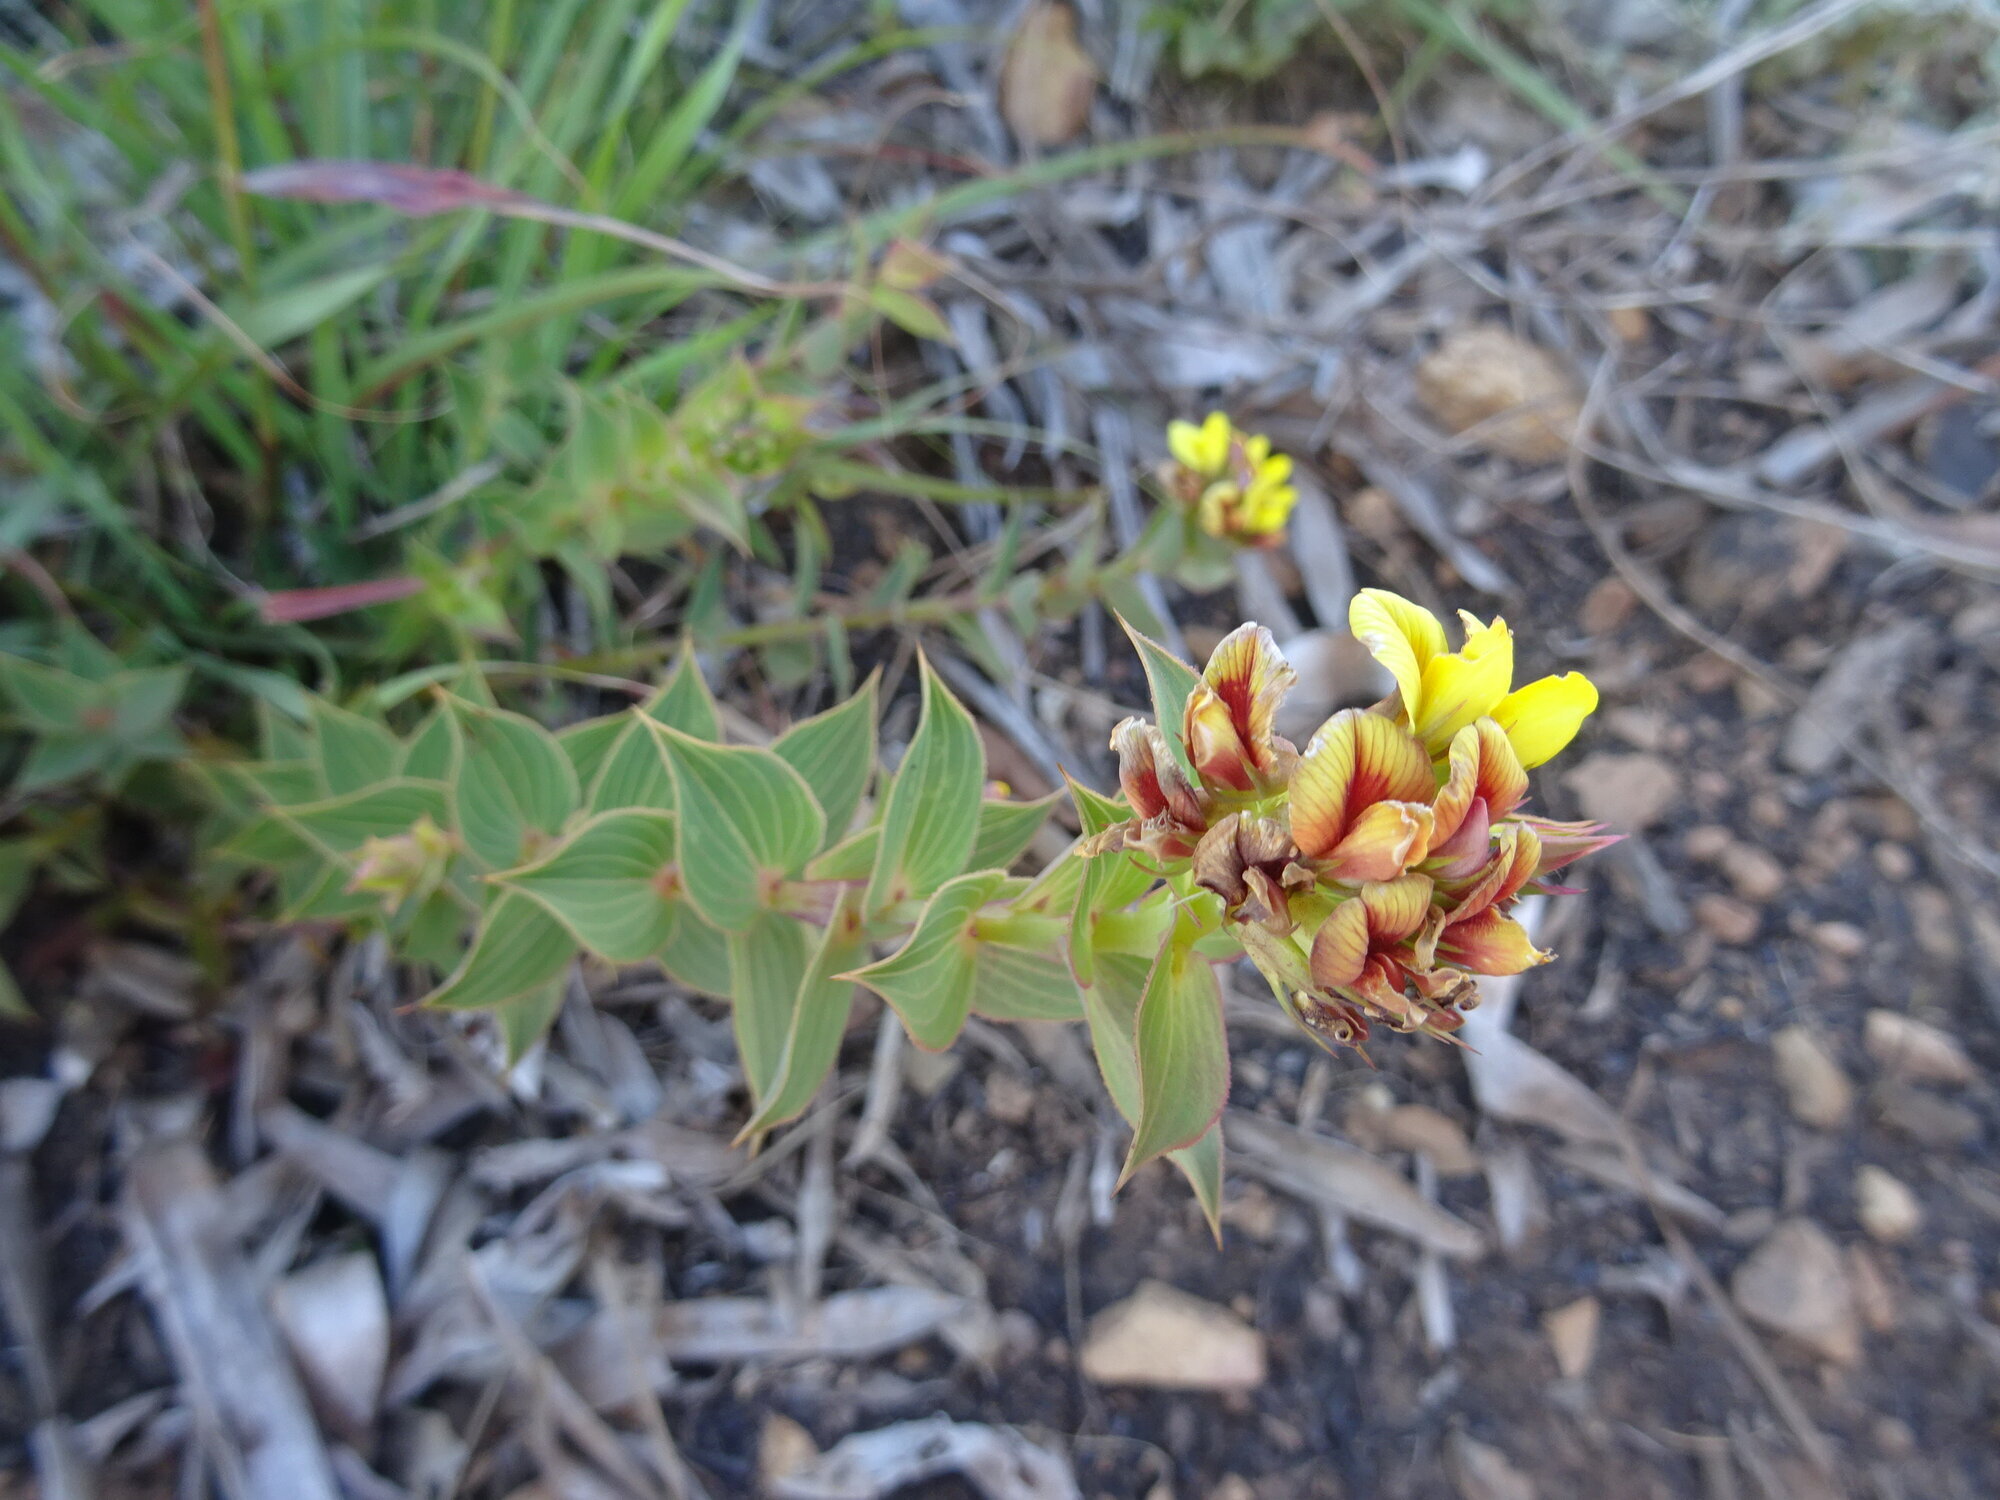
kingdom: Plantae
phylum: Tracheophyta
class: Magnoliopsida
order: Fabales
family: Fabaceae
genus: Aspalathus
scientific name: Aspalathus crenata
